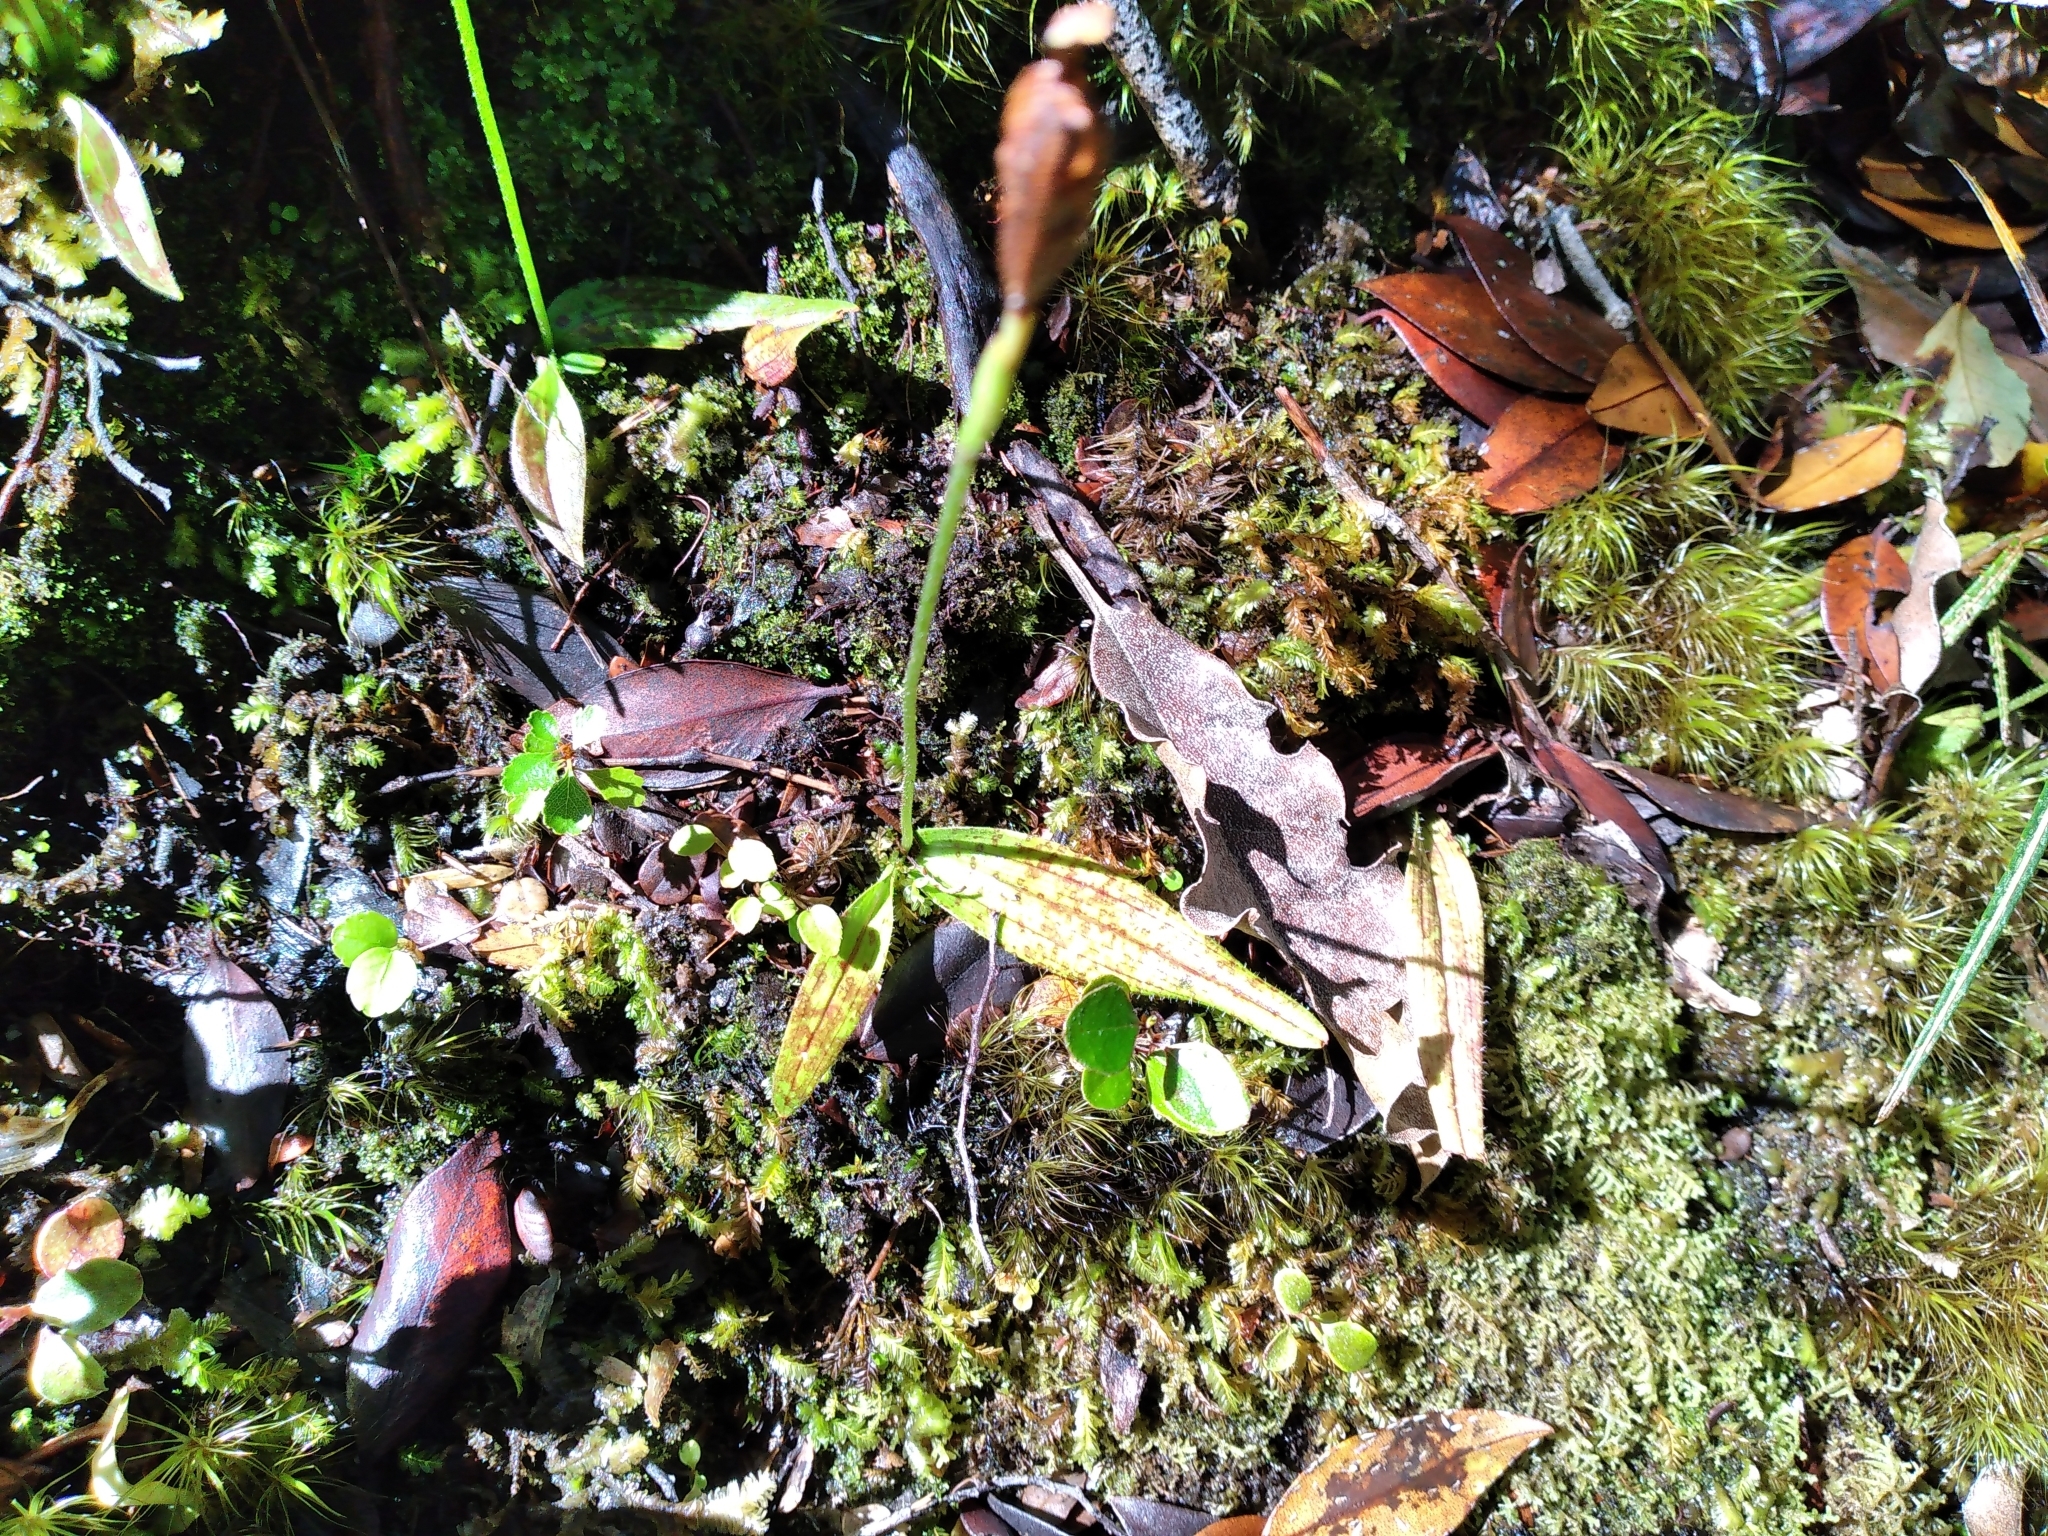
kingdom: Plantae
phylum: Tracheophyta
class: Liliopsida
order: Asparagales
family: Orchidaceae
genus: Aporostylis
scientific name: Aporostylis bifolia
